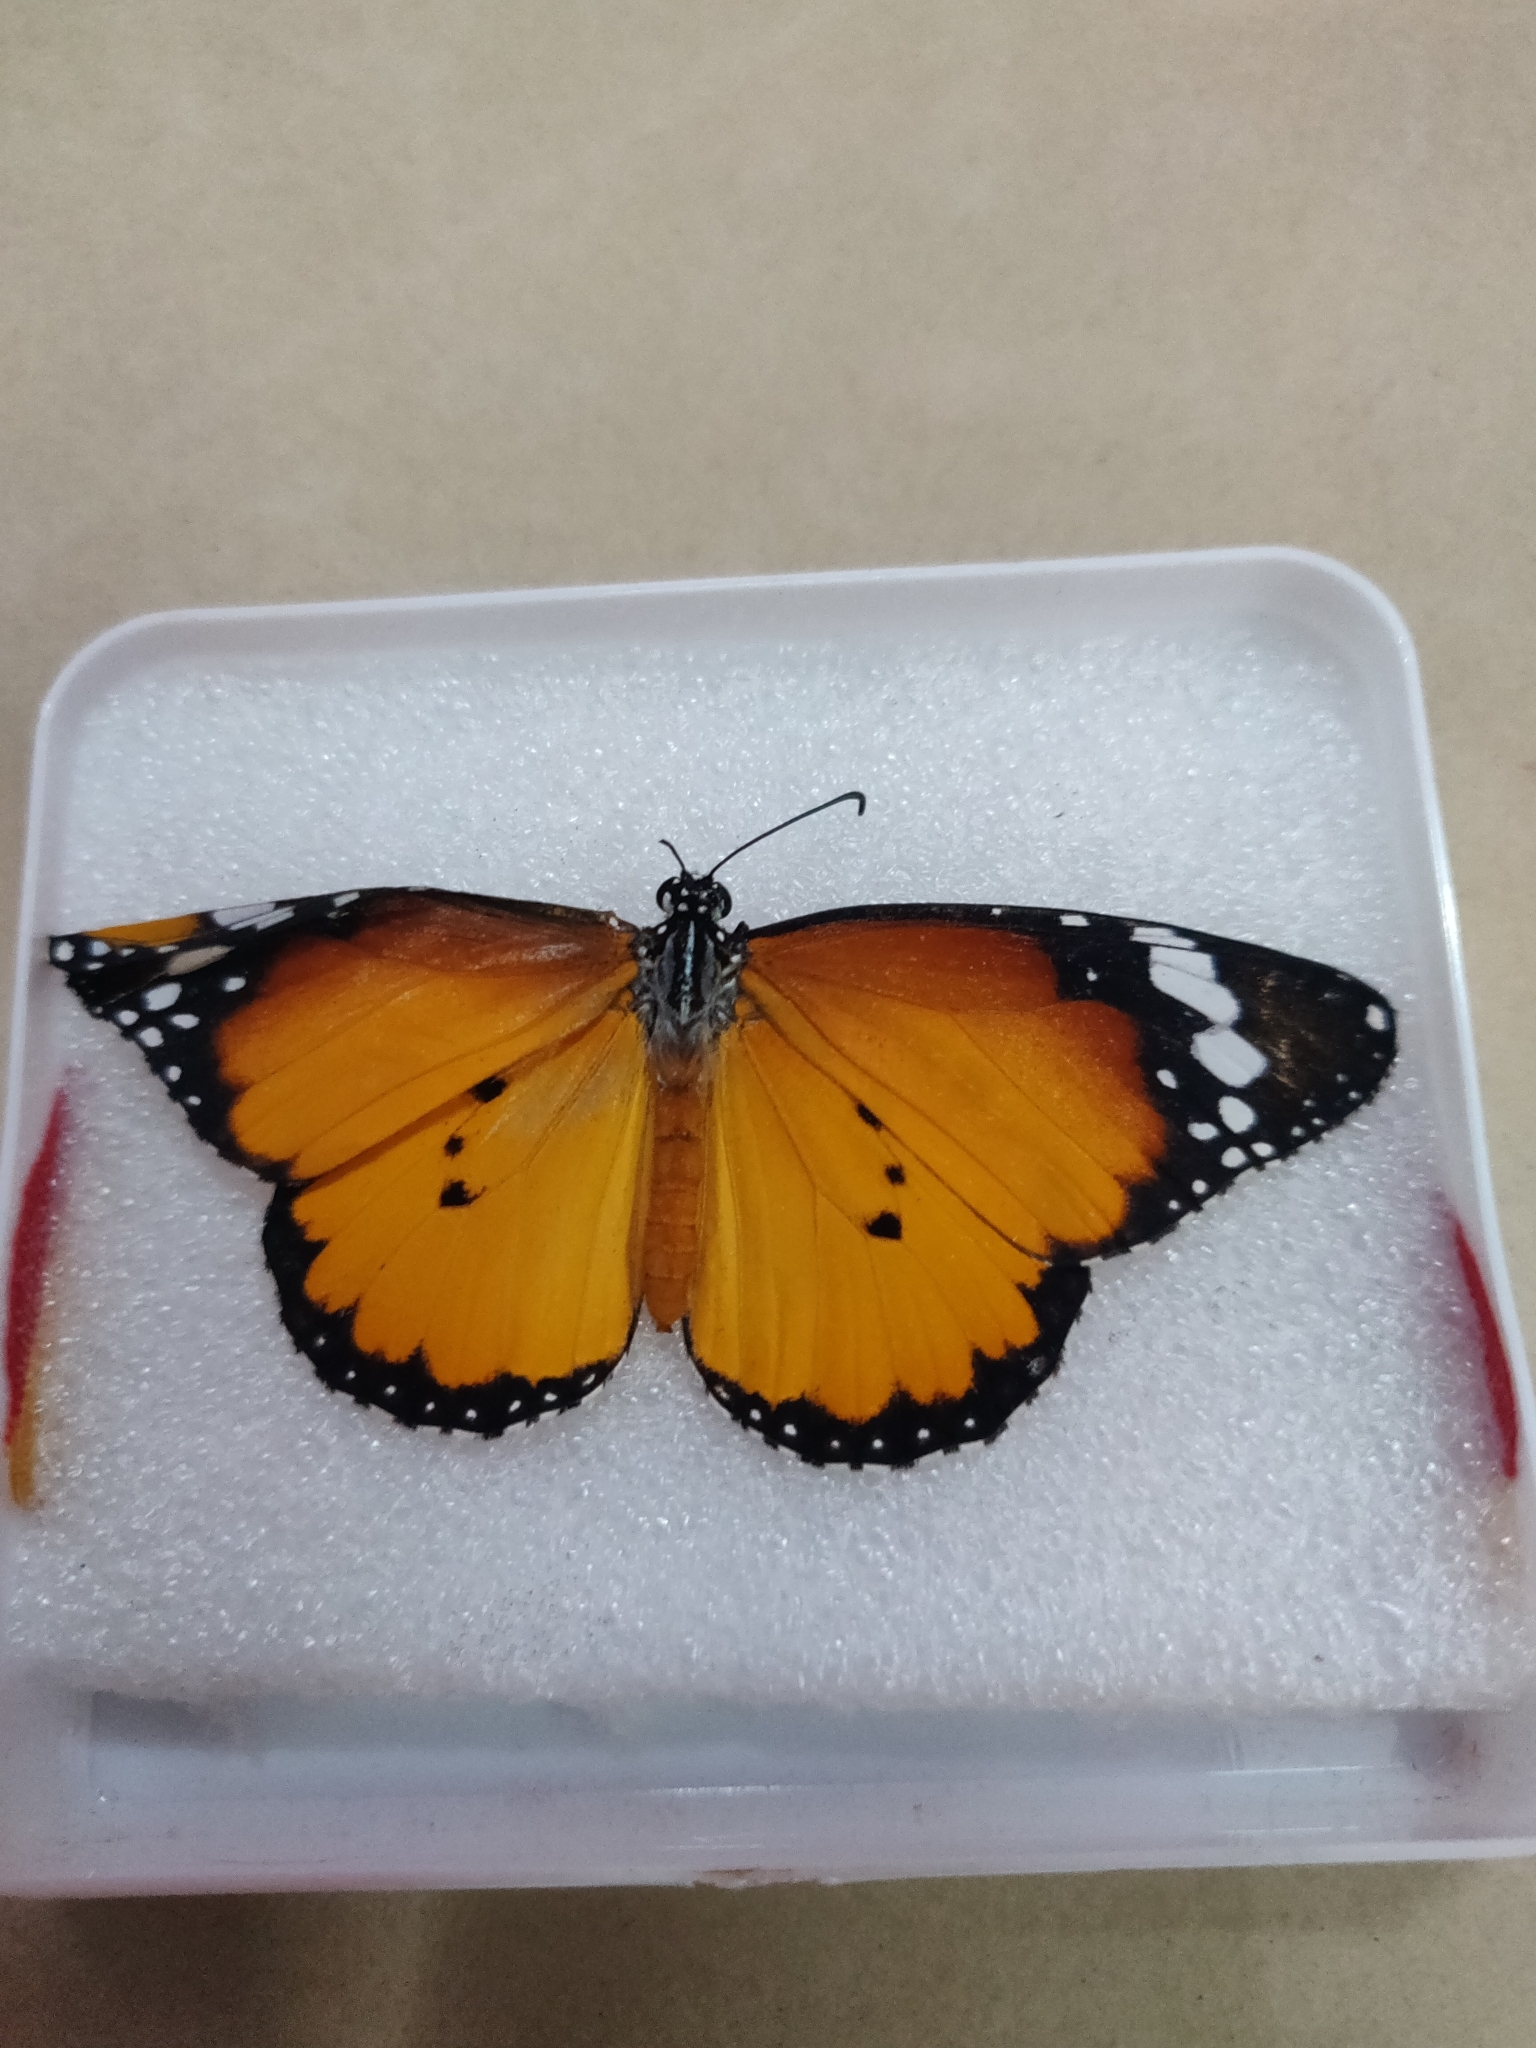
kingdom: Animalia
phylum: Arthropoda
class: Insecta
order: Lepidoptera
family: Nymphalidae
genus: Danaus
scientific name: Danaus chrysippus
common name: Plain tiger
